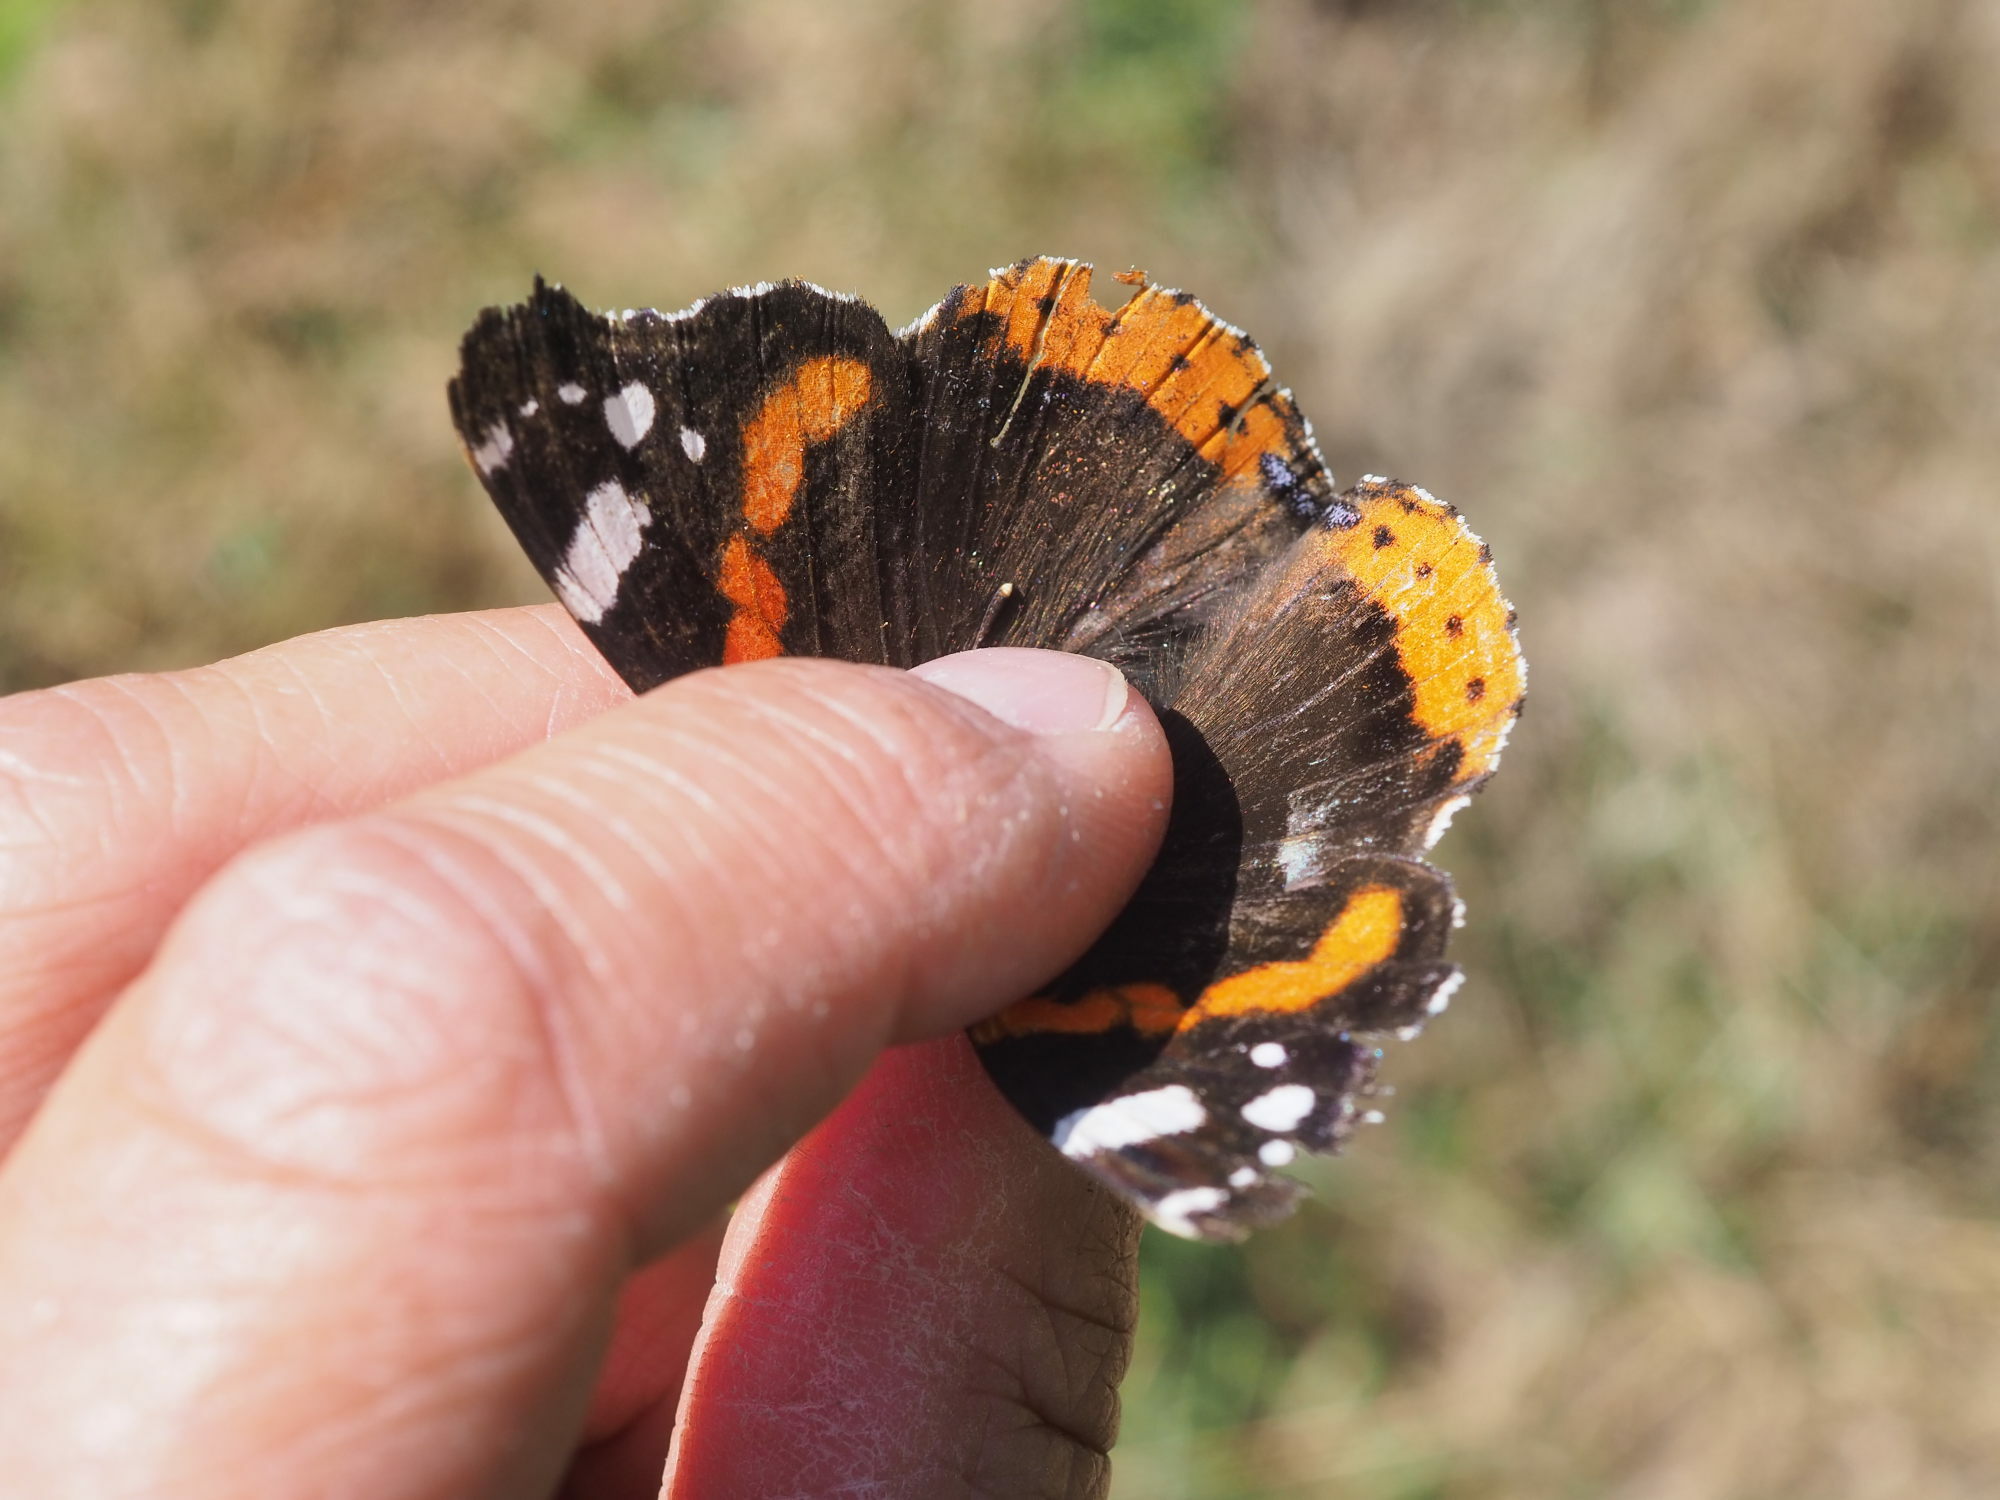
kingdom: Animalia
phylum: Arthropoda
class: Insecta
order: Lepidoptera
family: Nymphalidae
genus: Vanessa
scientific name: Vanessa atalanta
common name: Red admiral
